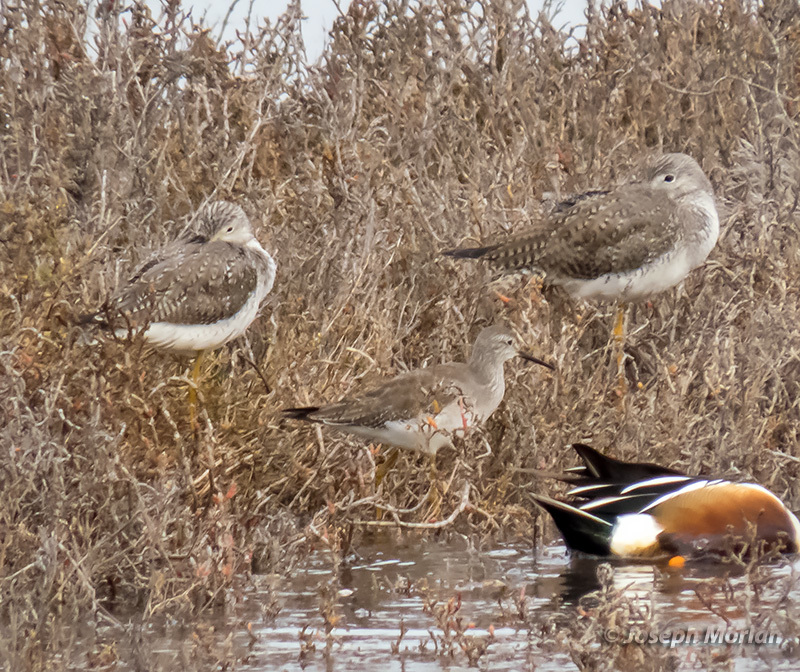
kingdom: Animalia
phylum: Chordata
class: Aves
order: Charadriiformes
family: Scolopacidae
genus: Tringa
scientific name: Tringa flavipes
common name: Lesser yellowlegs
